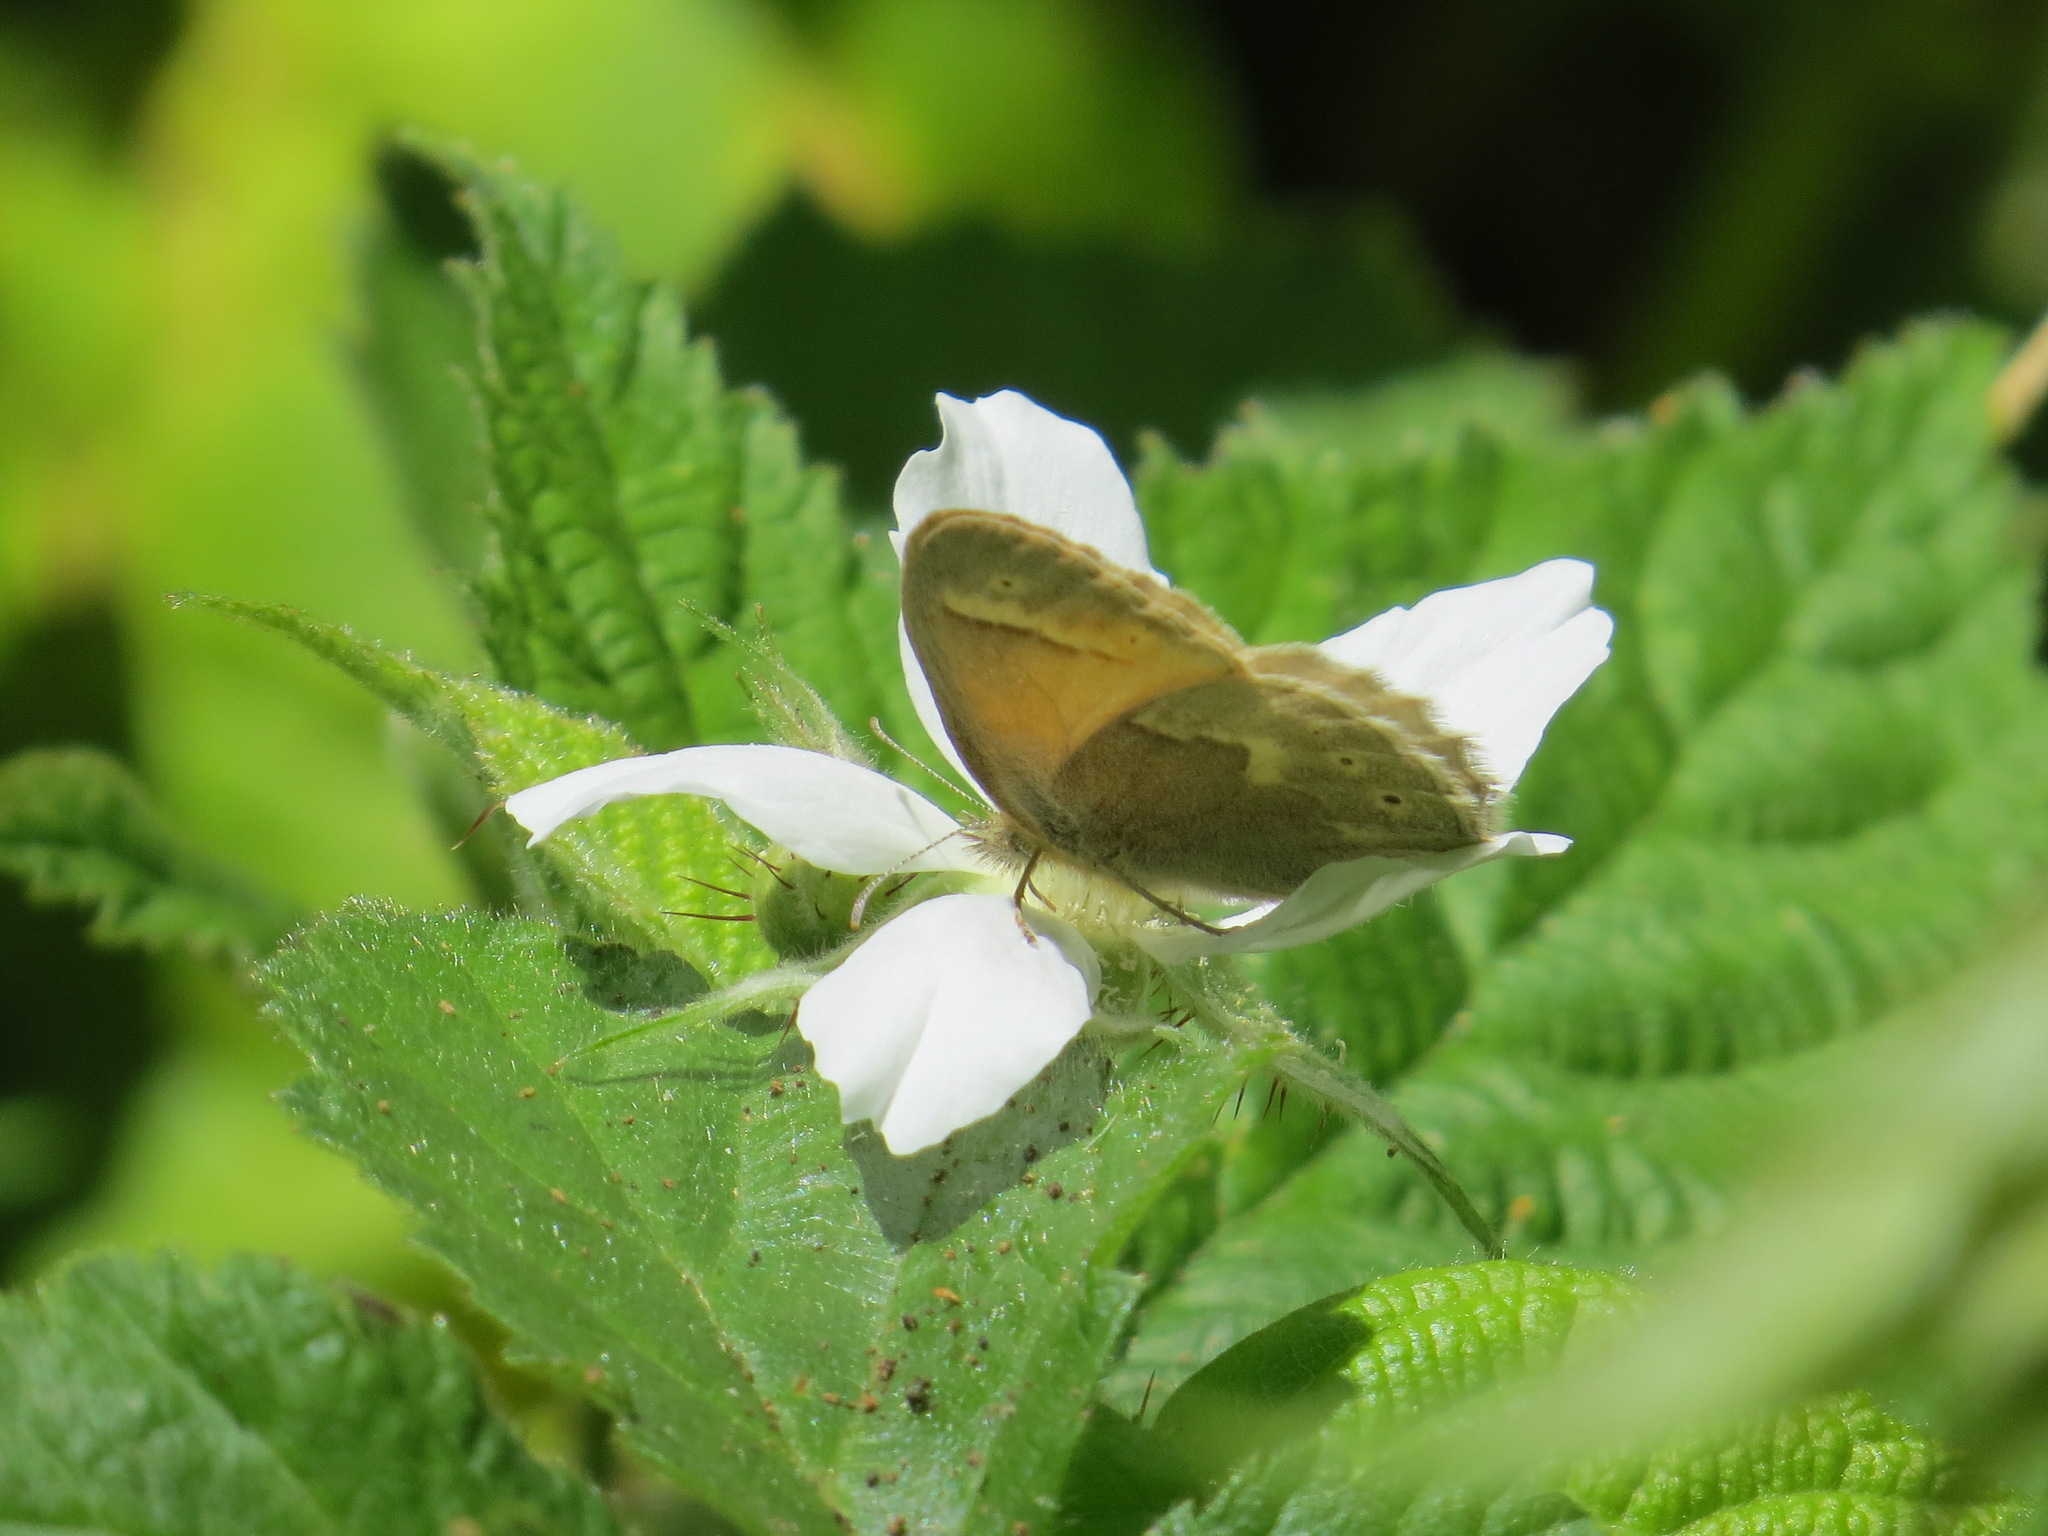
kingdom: Animalia
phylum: Arthropoda
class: Insecta
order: Lepidoptera
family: Nymphalidae
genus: Coenonympha
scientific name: Coenonympha california
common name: Common ringlet
